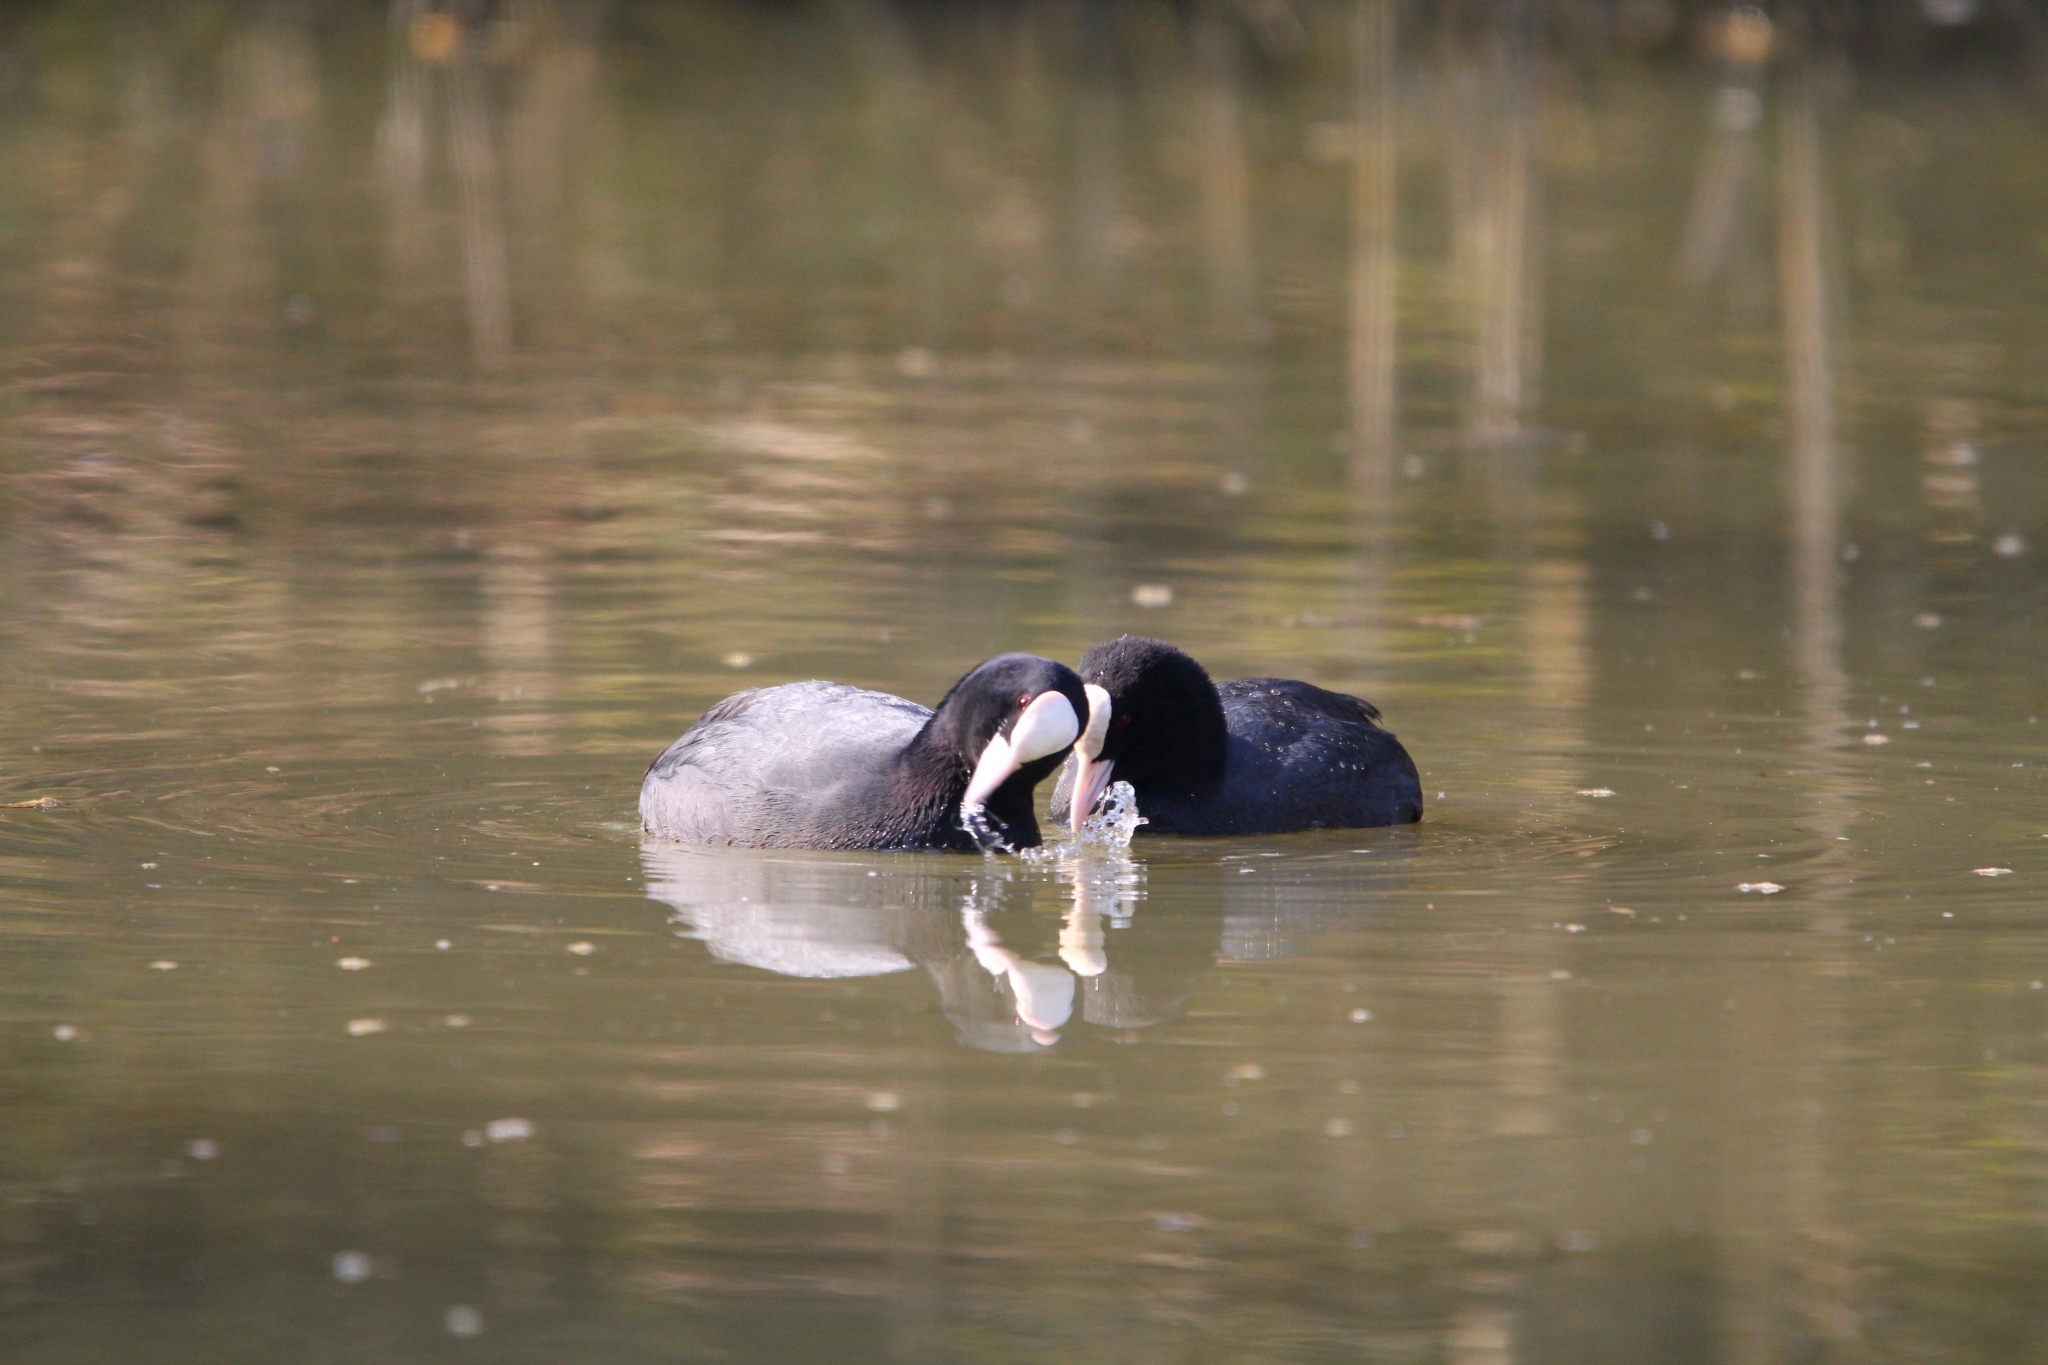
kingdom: Animalia
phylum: Chordata
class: Aves
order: Gruiformes
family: Rallidae
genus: Fulica
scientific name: Fulica atra
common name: Eurasian coot
